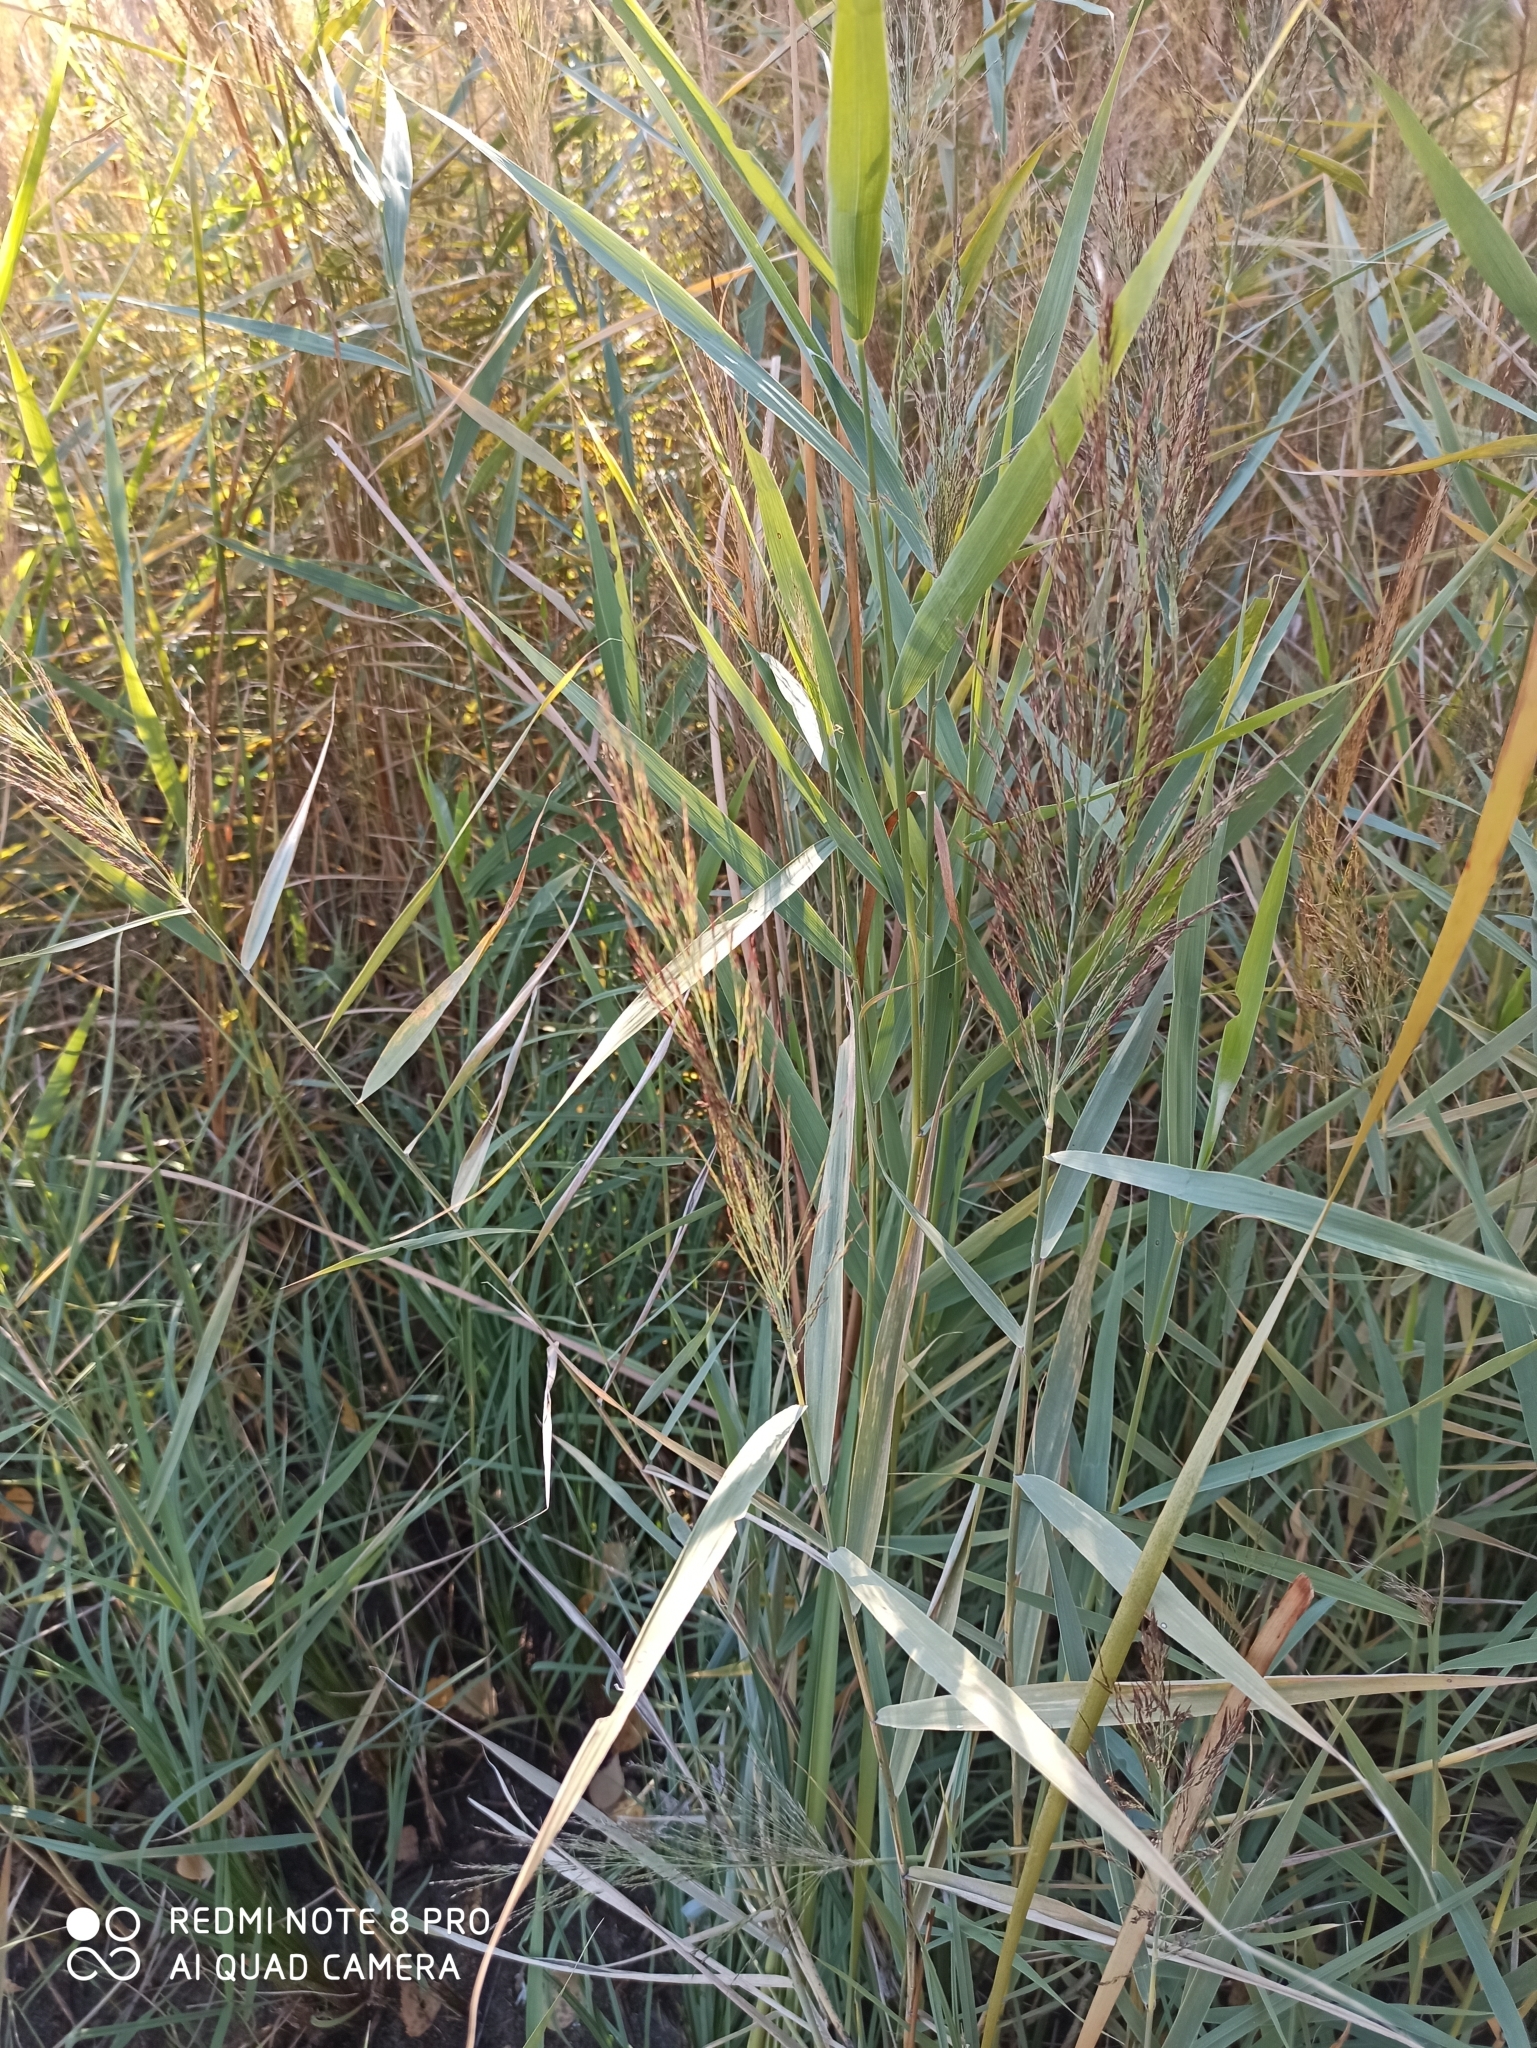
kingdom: Plantae
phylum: Tracheophyta
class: Liliopsida
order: Poales
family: Poaceae
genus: Phragmites
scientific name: Phragmites australis
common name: Common reed
